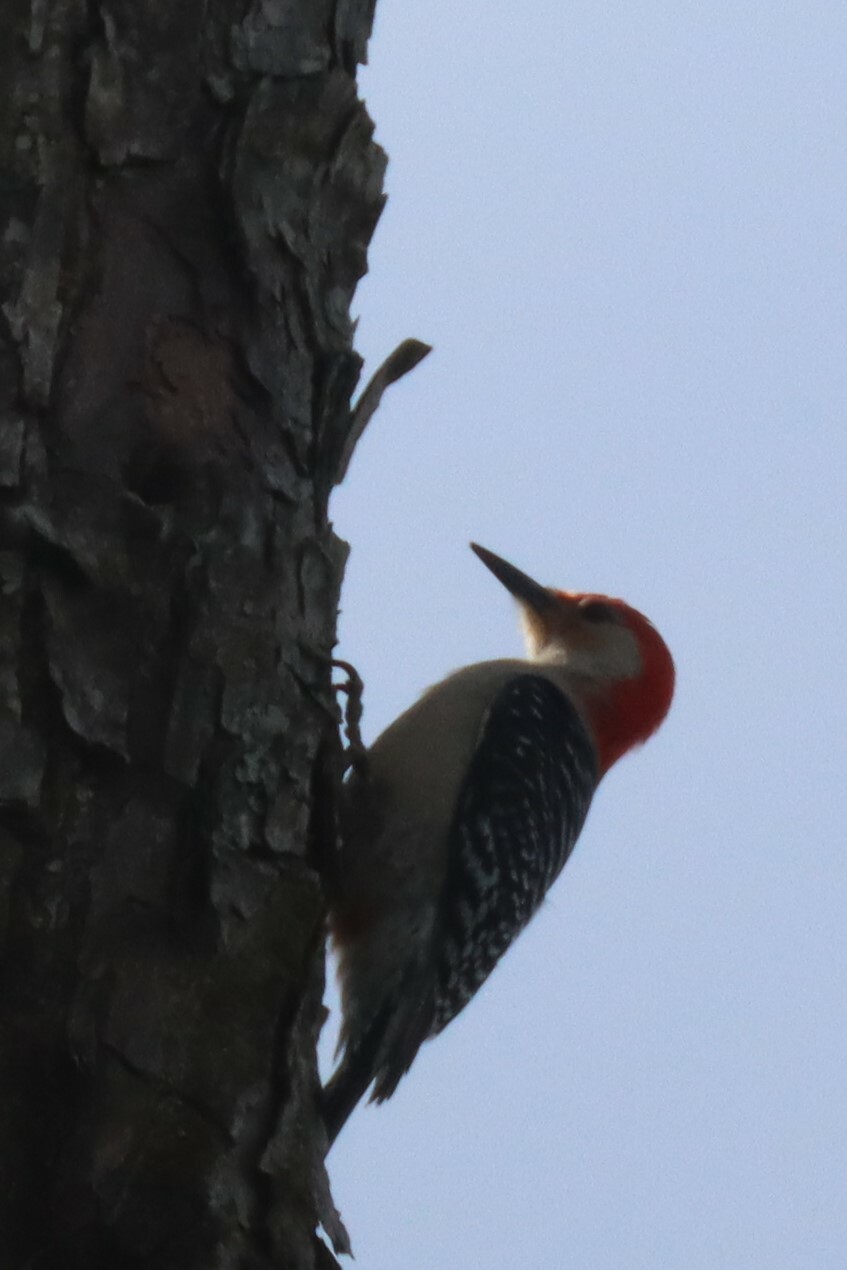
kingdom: Animalia
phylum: Chordata
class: Aves
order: Piciformes
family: Picidae
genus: Melanerpes
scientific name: Melanerpes carolinus
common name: Red-bellied woodpecker
